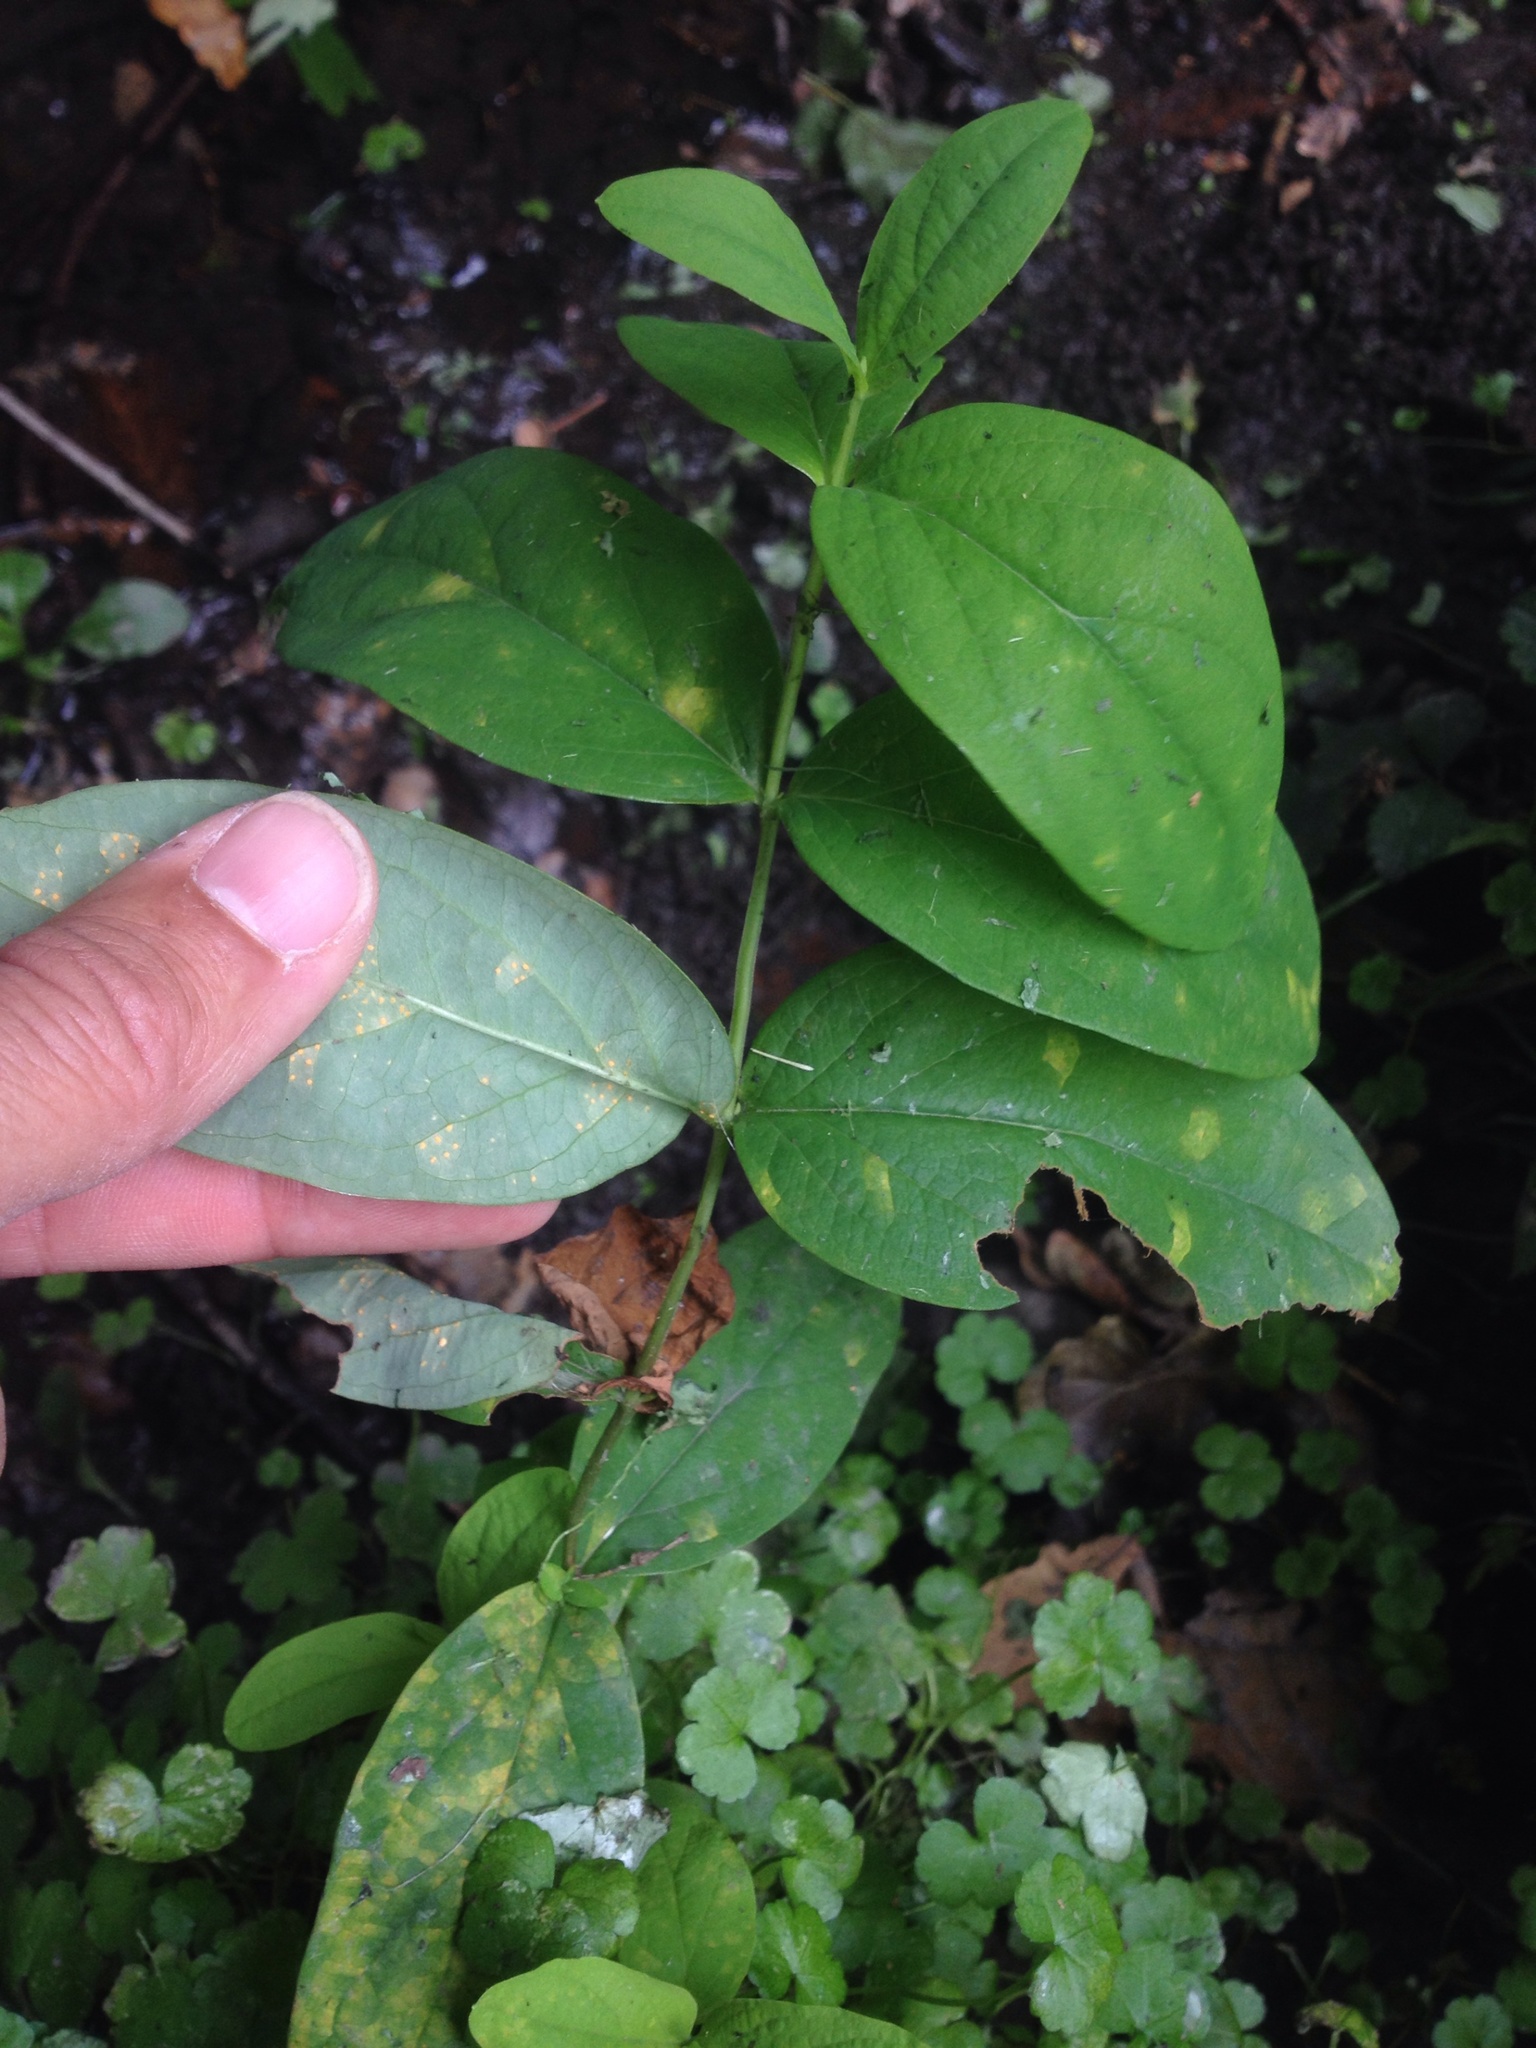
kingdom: Plantae
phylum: Tracheophyta
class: Magnoliopsida
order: Malpighiales
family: Hypericaceae
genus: Hypericum
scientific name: Hypericum androsaemum
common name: Sweet-amber
